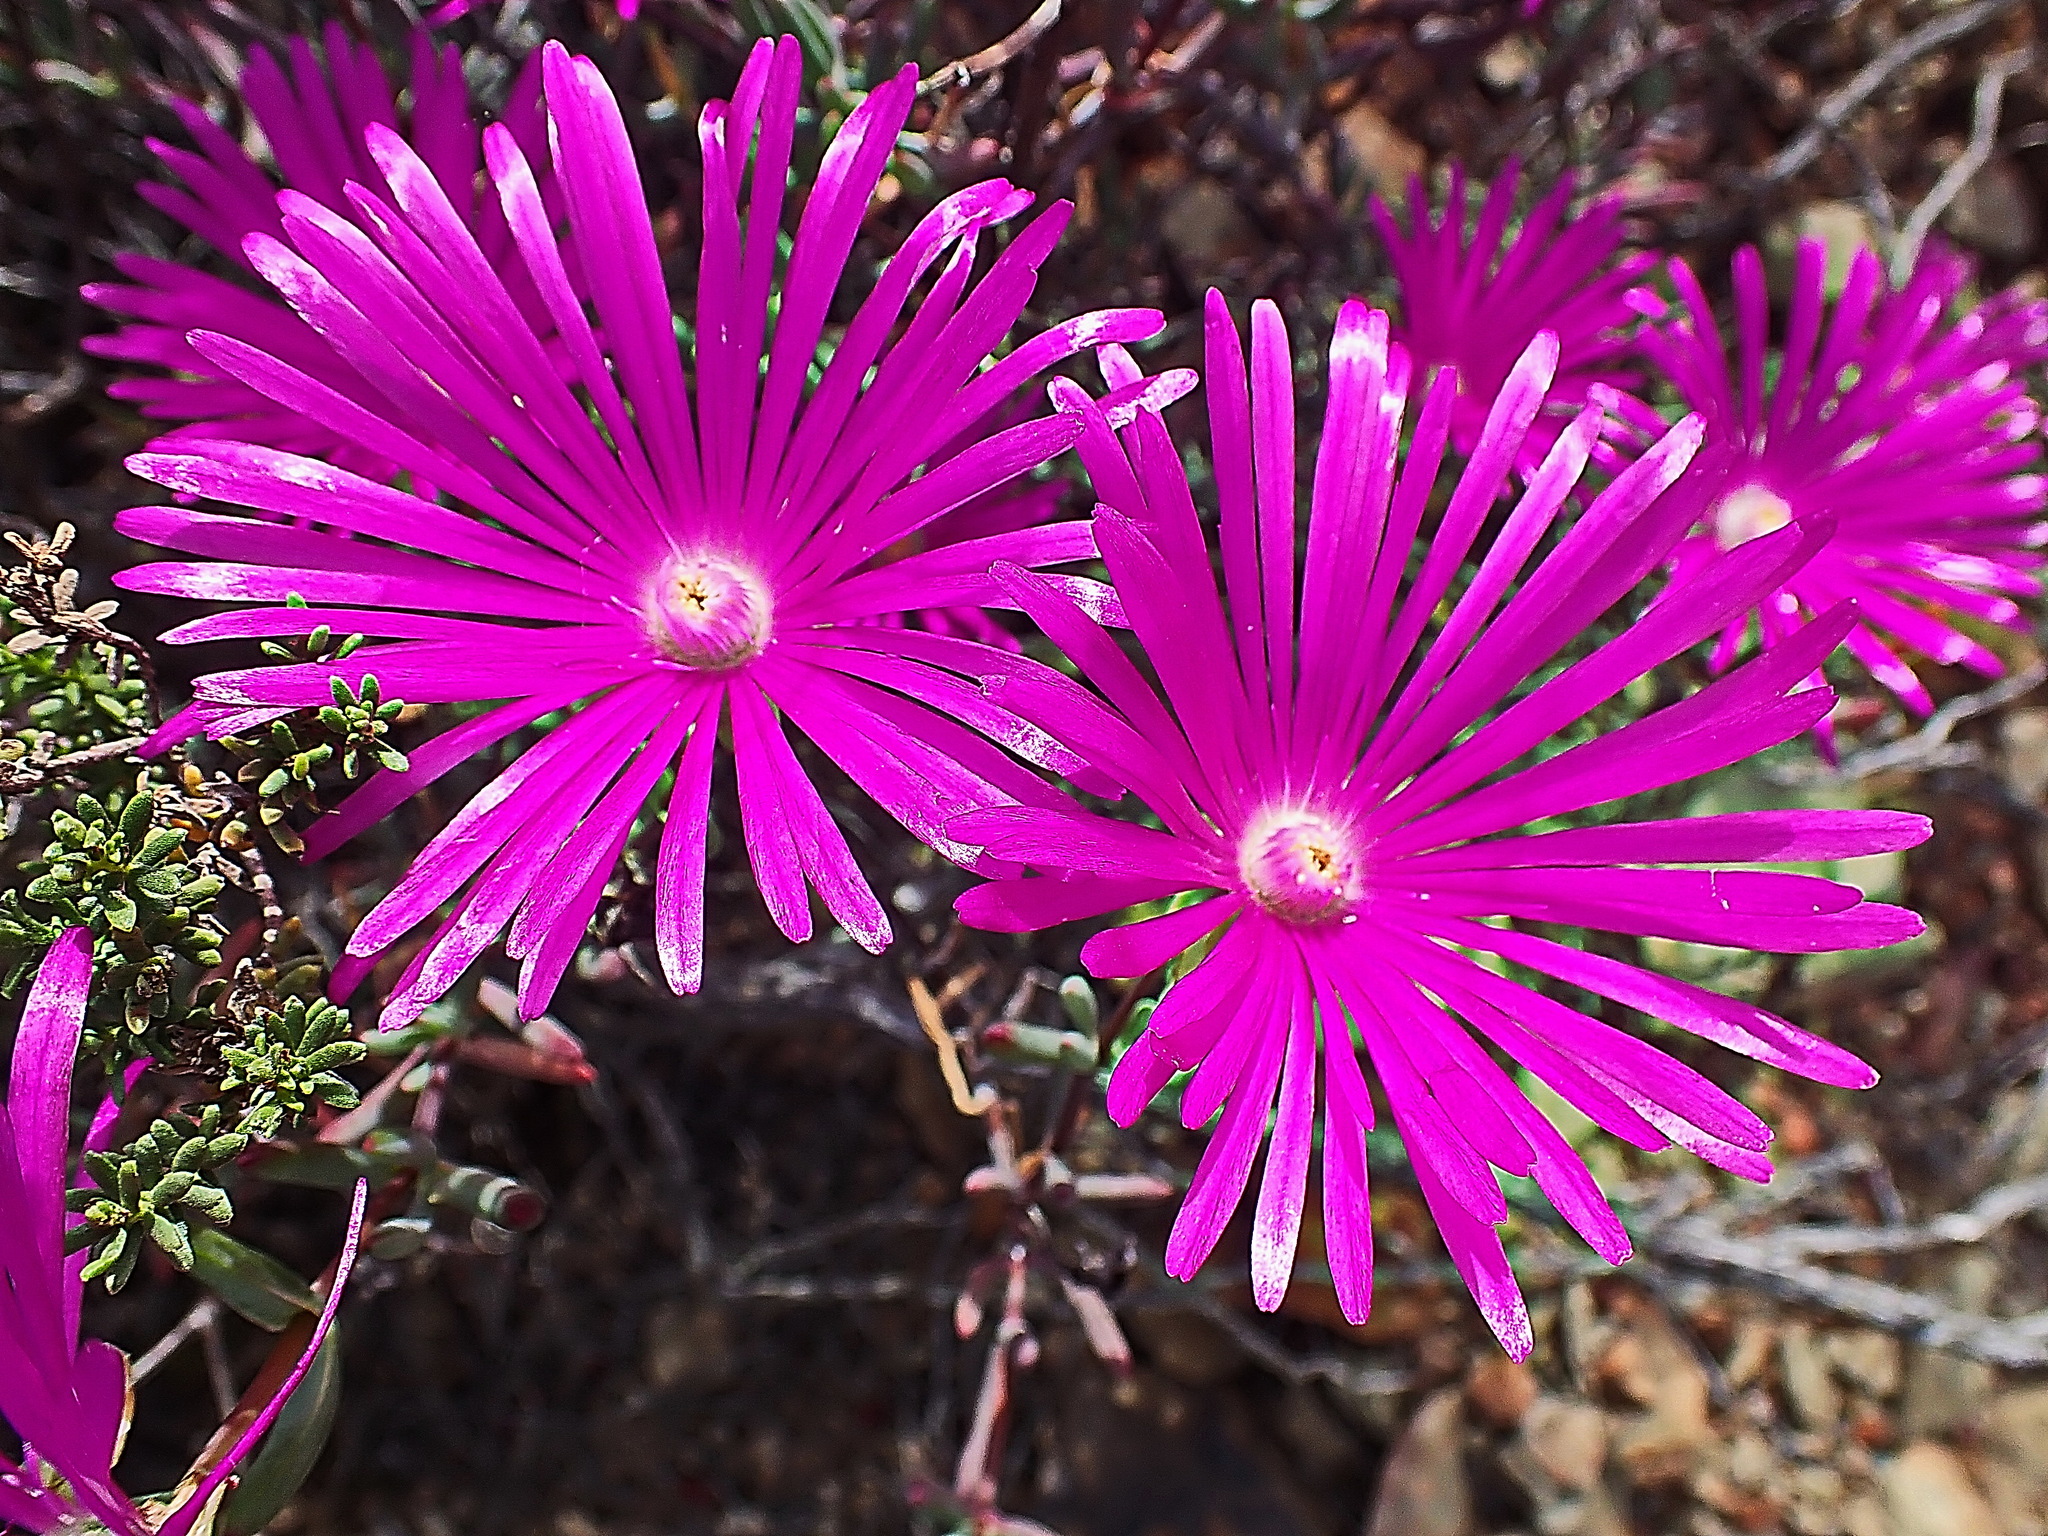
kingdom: Plantae
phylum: Tracheophyta
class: Magnoliopsida
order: Caryophyllales
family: Aizoaceae
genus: Lampranthus
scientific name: Lampranthus haworthii
